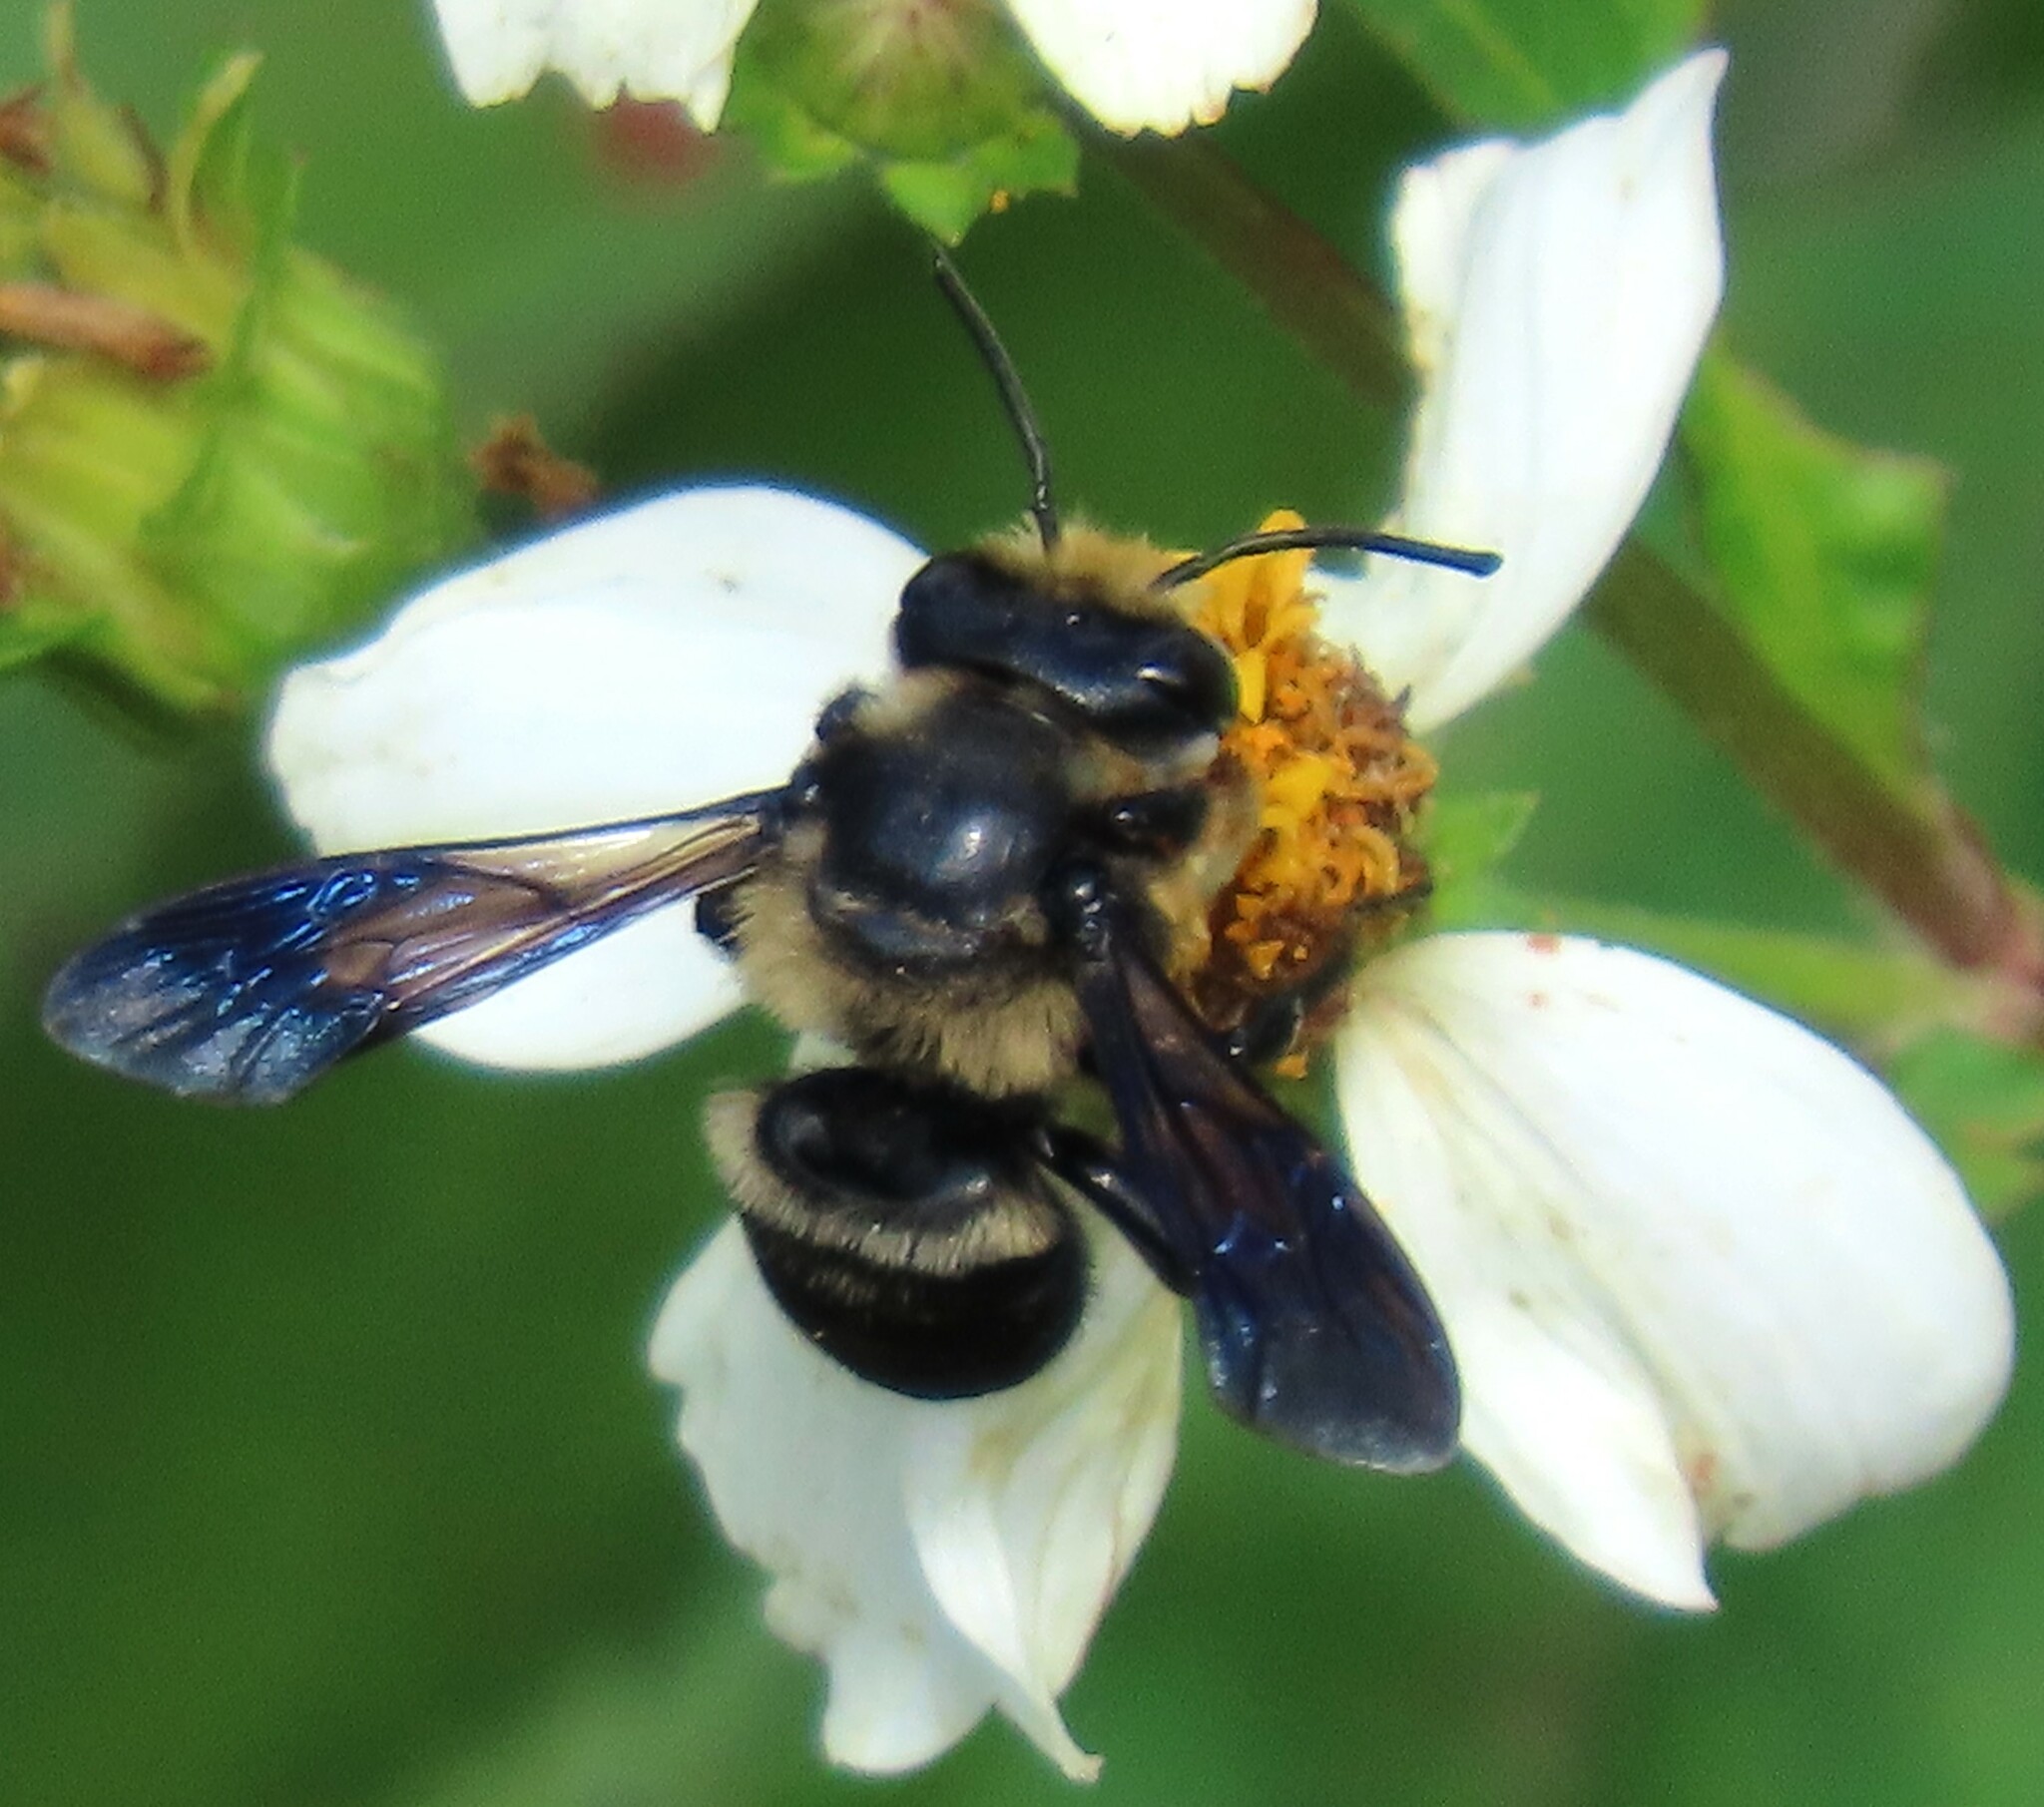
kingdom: Animalia
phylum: Arthropoda
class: Insecta
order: Hymenoptera
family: Megachilidae
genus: Megachile
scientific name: Megachile xylocopoides
